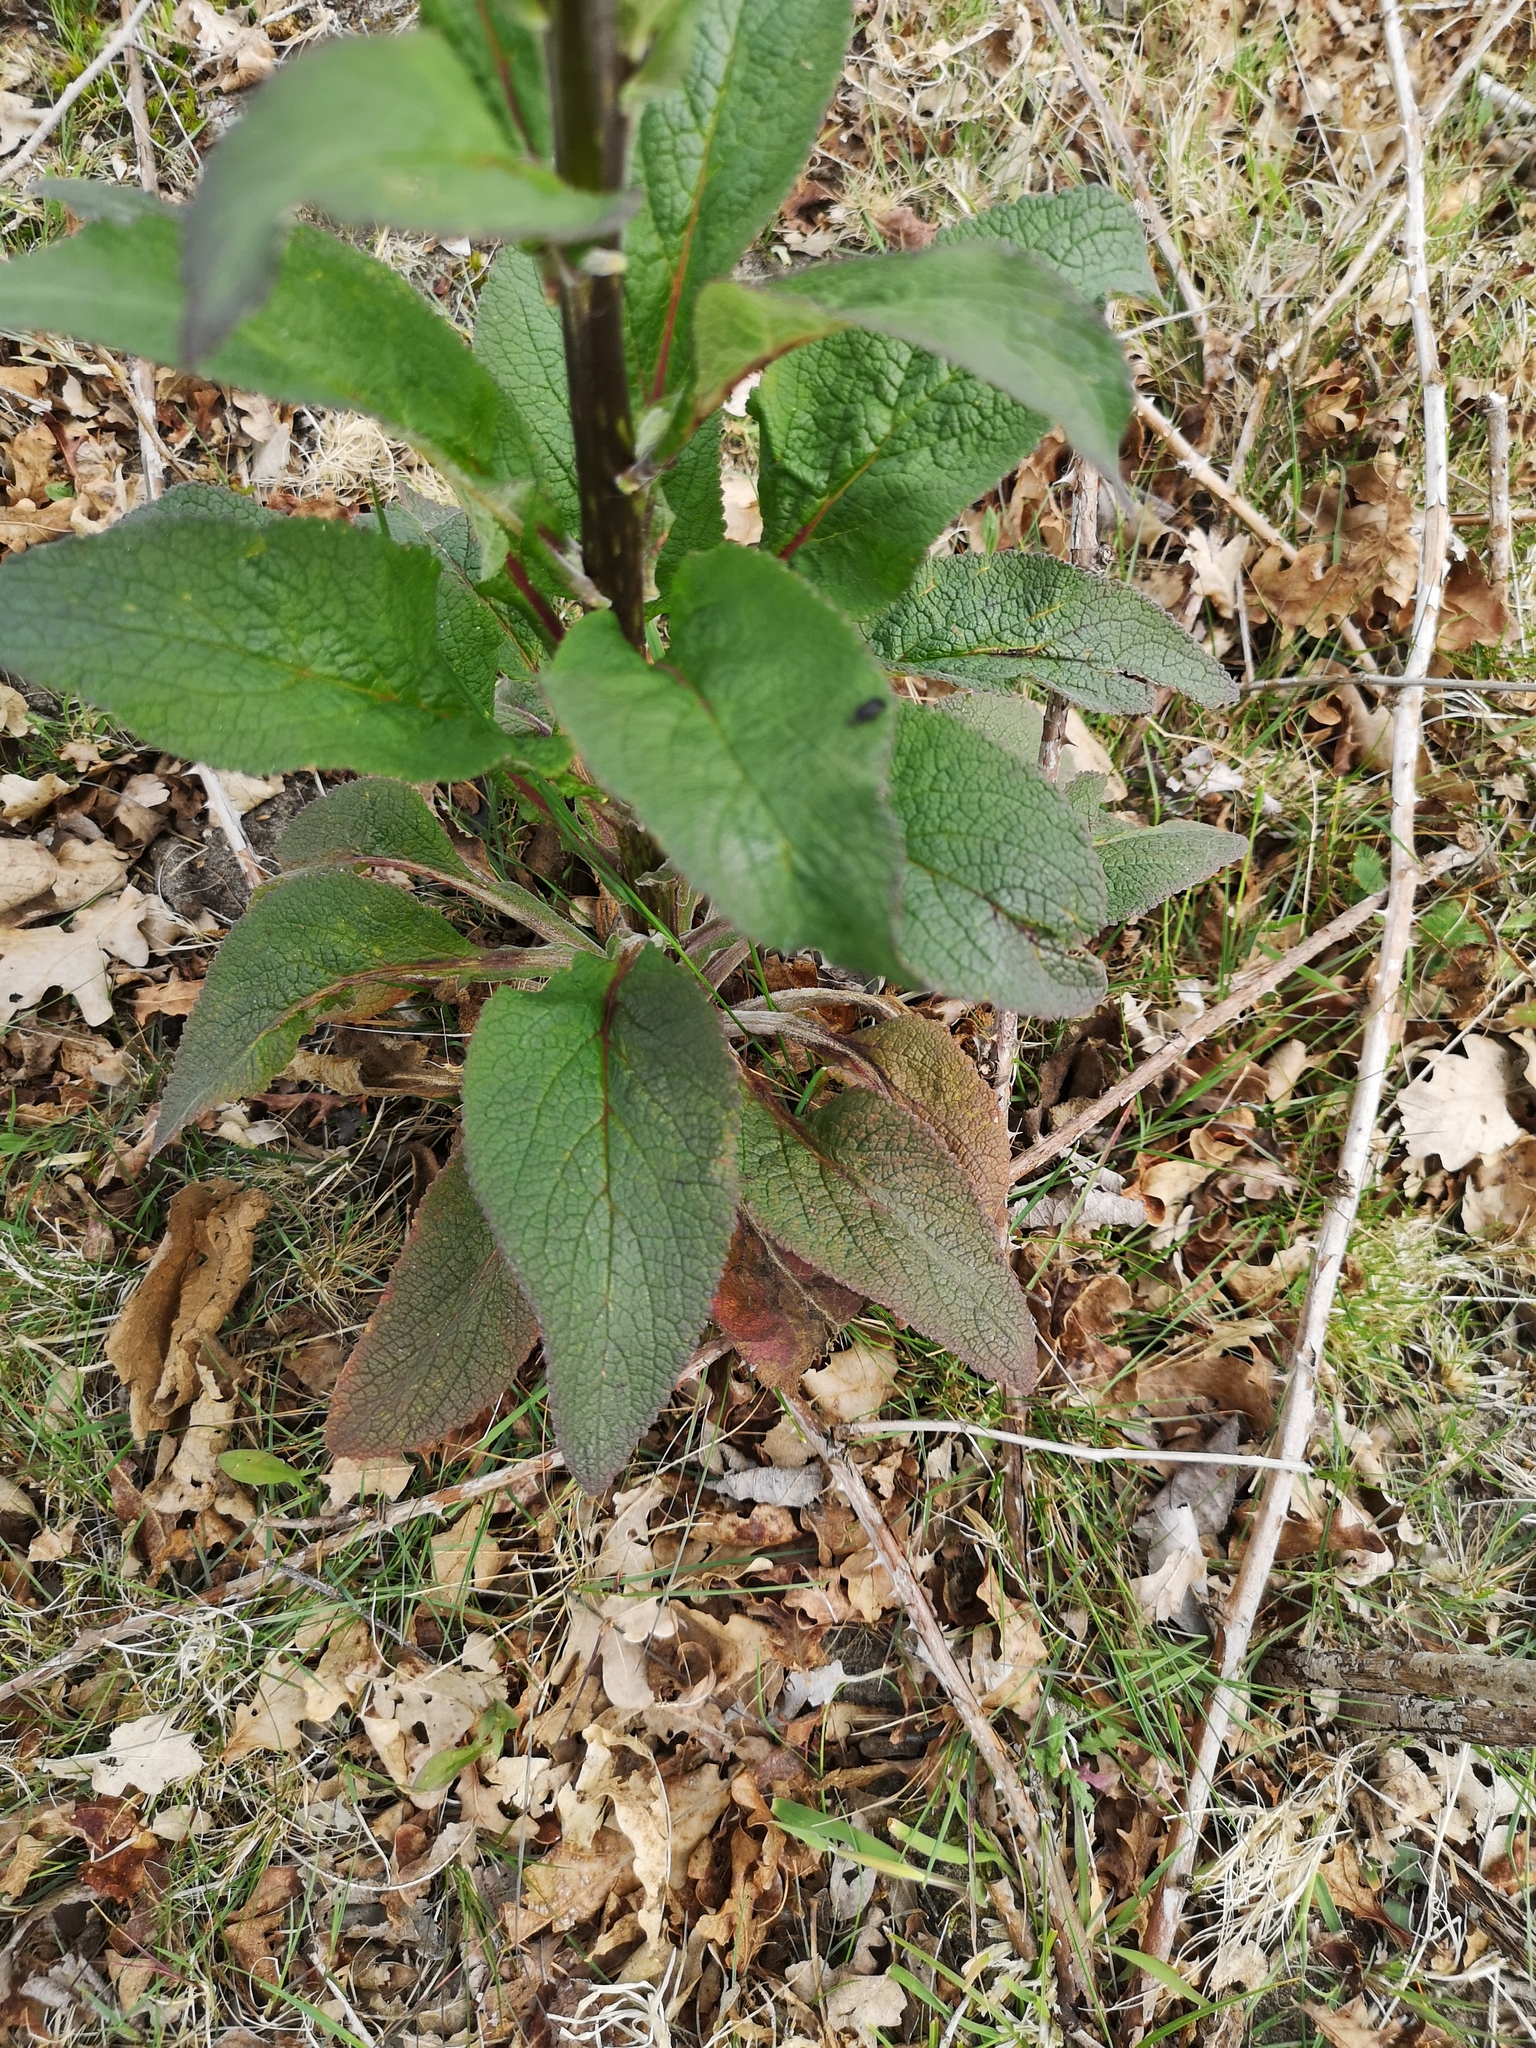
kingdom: Plantae
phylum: Tracheophyta
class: Magnoliopsida
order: Lamiales
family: Plantaginaceae
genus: Digitalis
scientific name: Digitalis purpurea
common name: Foxglove
